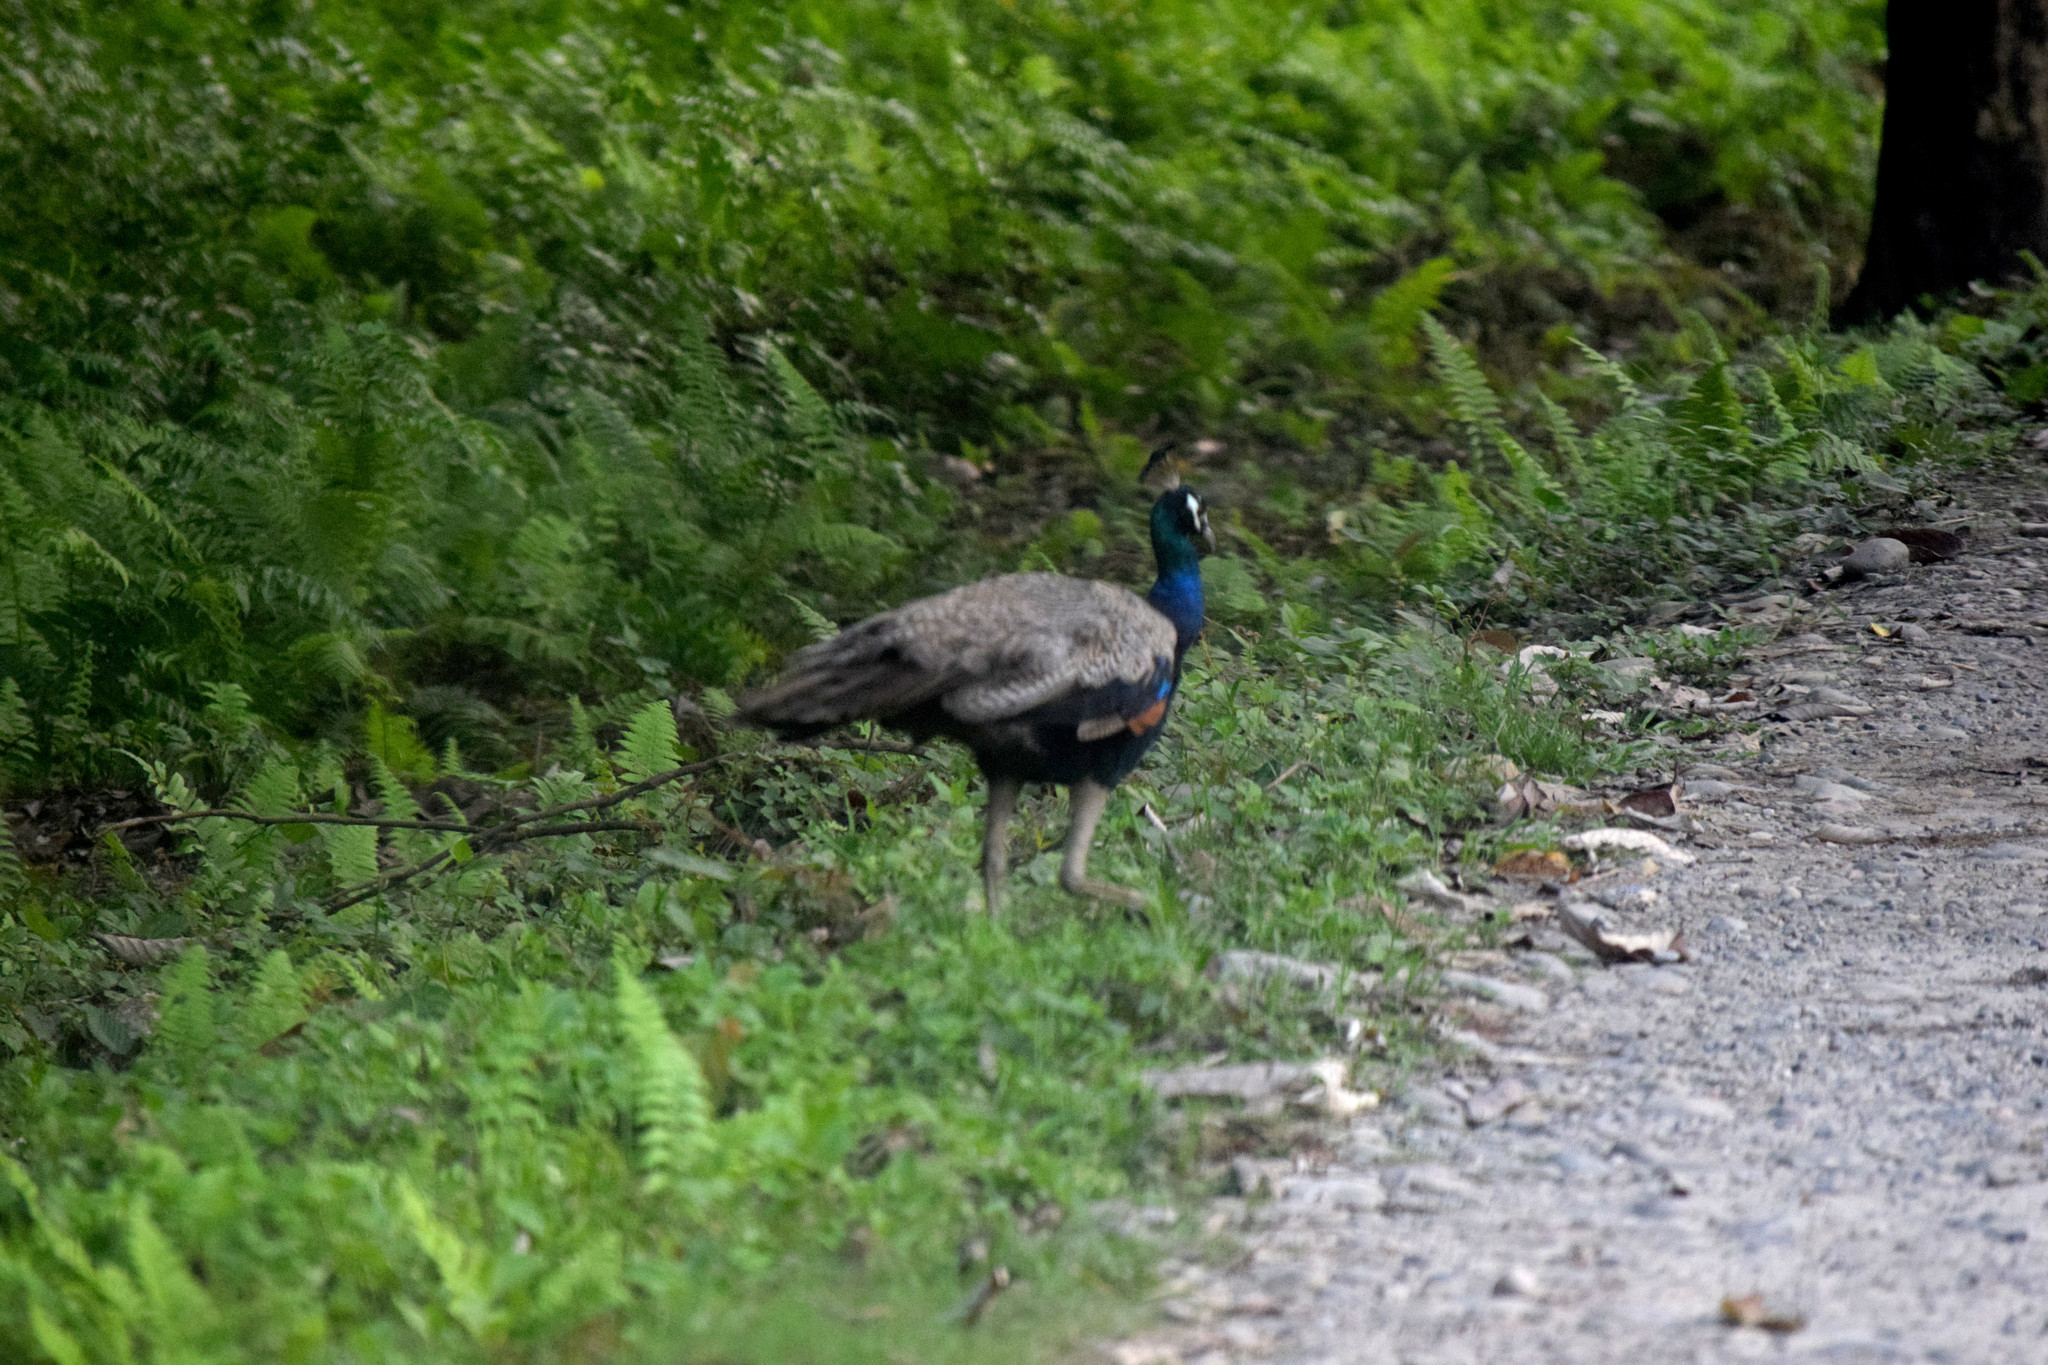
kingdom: Animalia
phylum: Chordata
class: Aves
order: Galliformes
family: Phasianidae
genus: Pavo
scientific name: Pavo cristatus
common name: Indian peafowl
